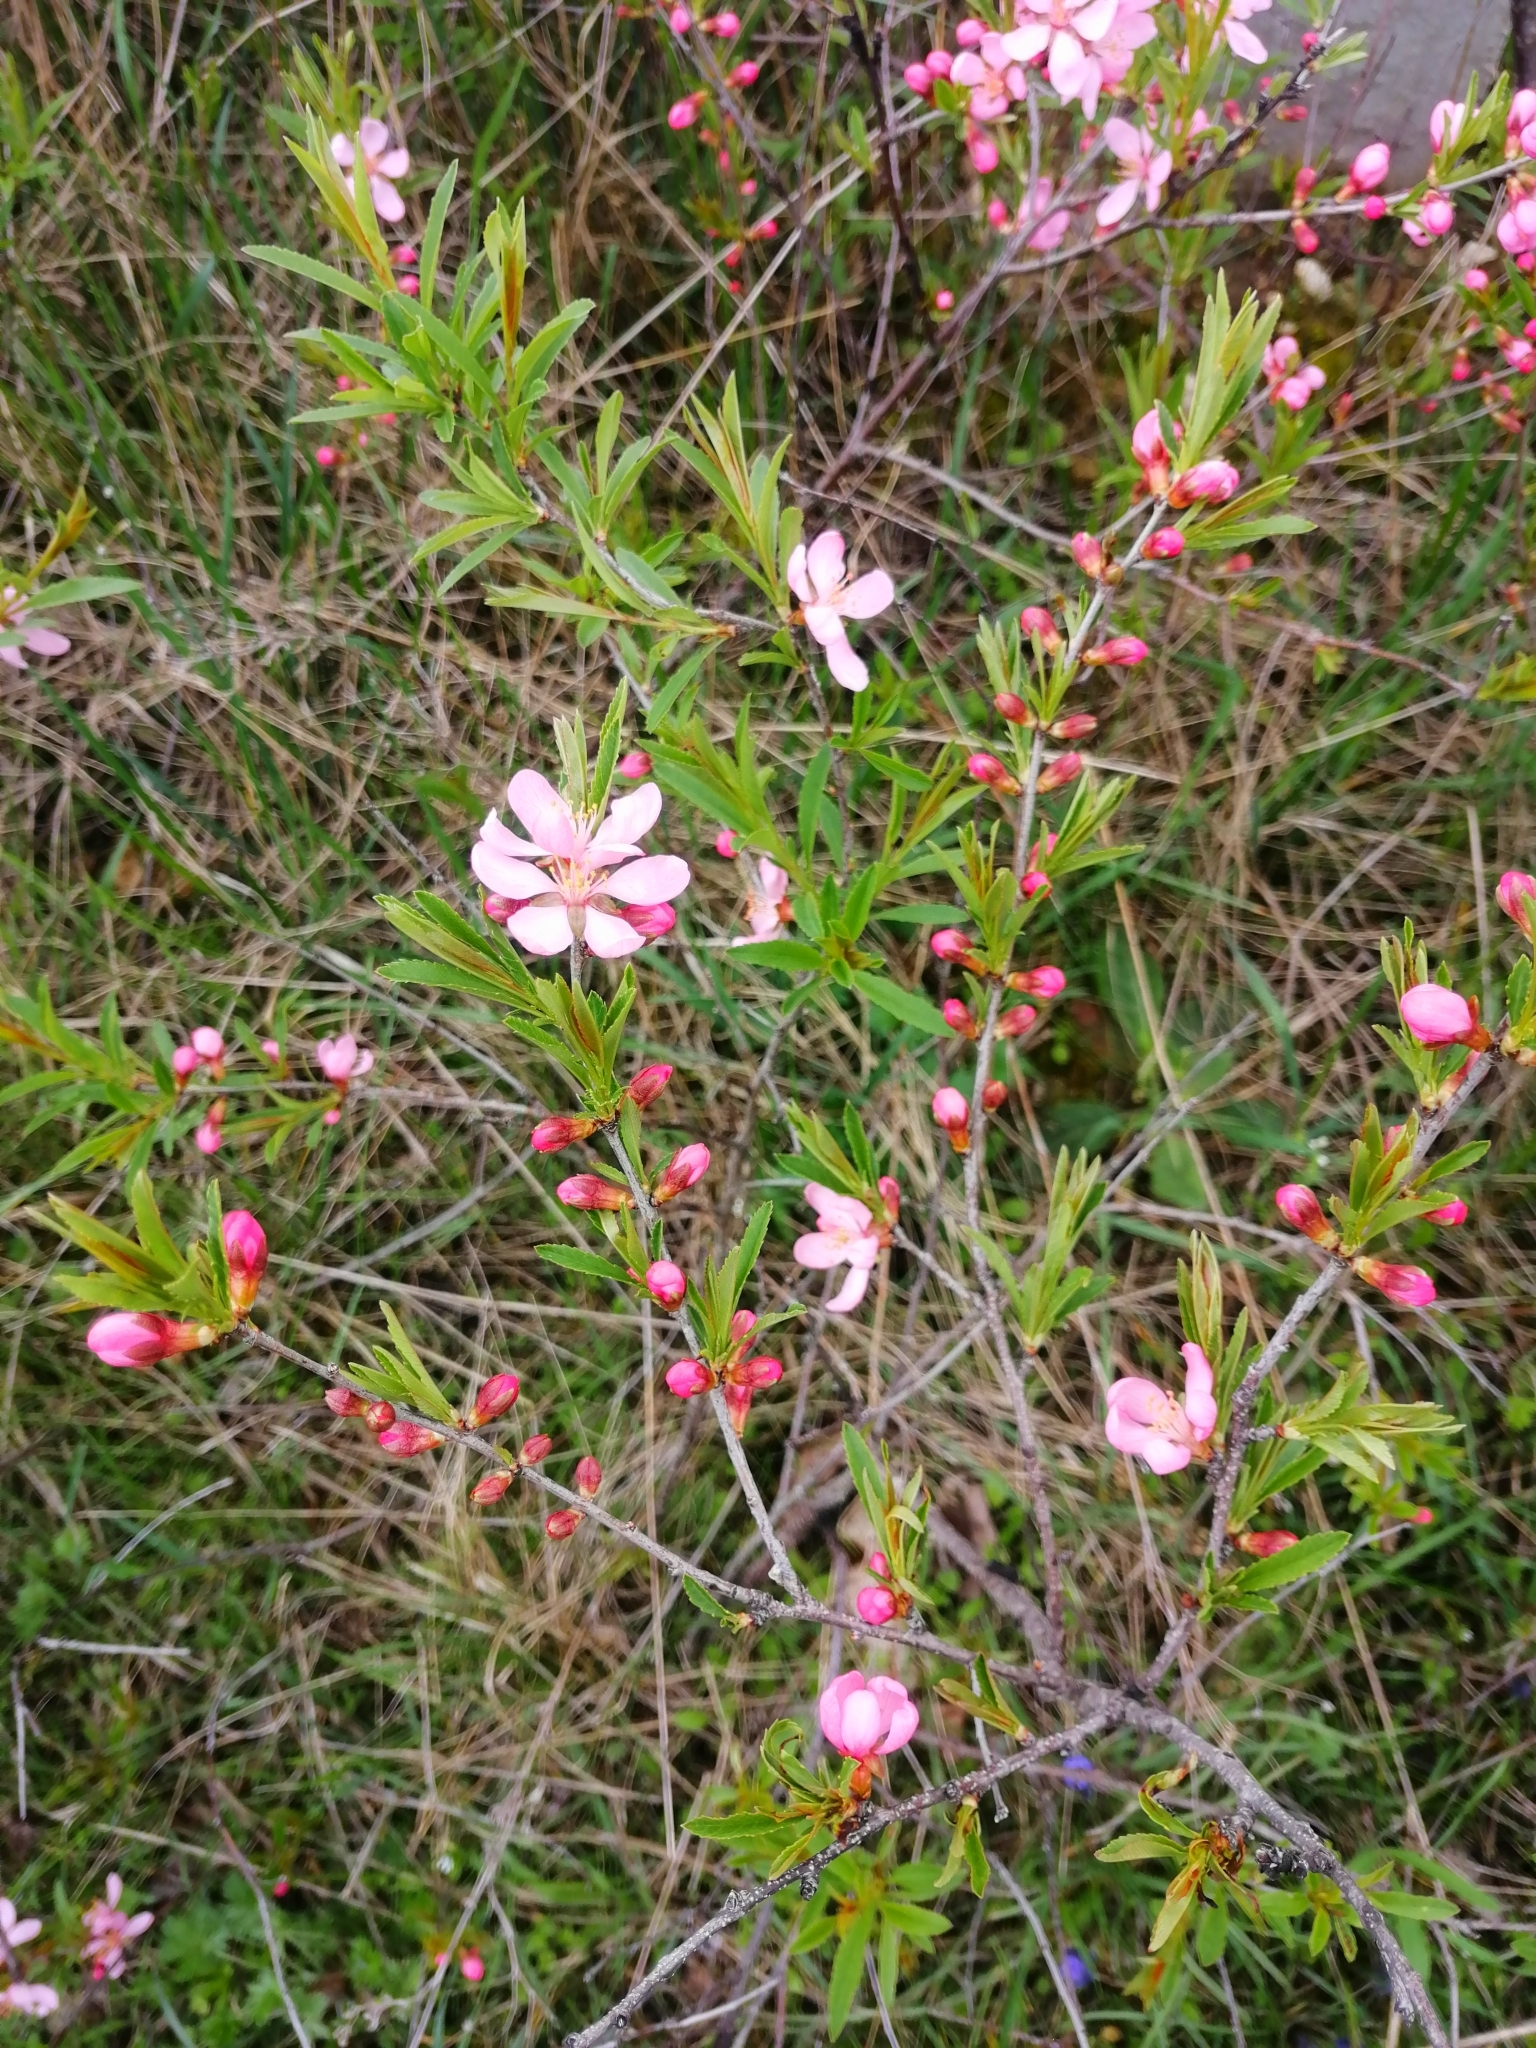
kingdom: Plantae
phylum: Tracheophyta
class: Magnoliopsida
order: Rosales
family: Rosaceae
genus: Prunus
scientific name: Prunus tenella
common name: Dwarf russian almond
